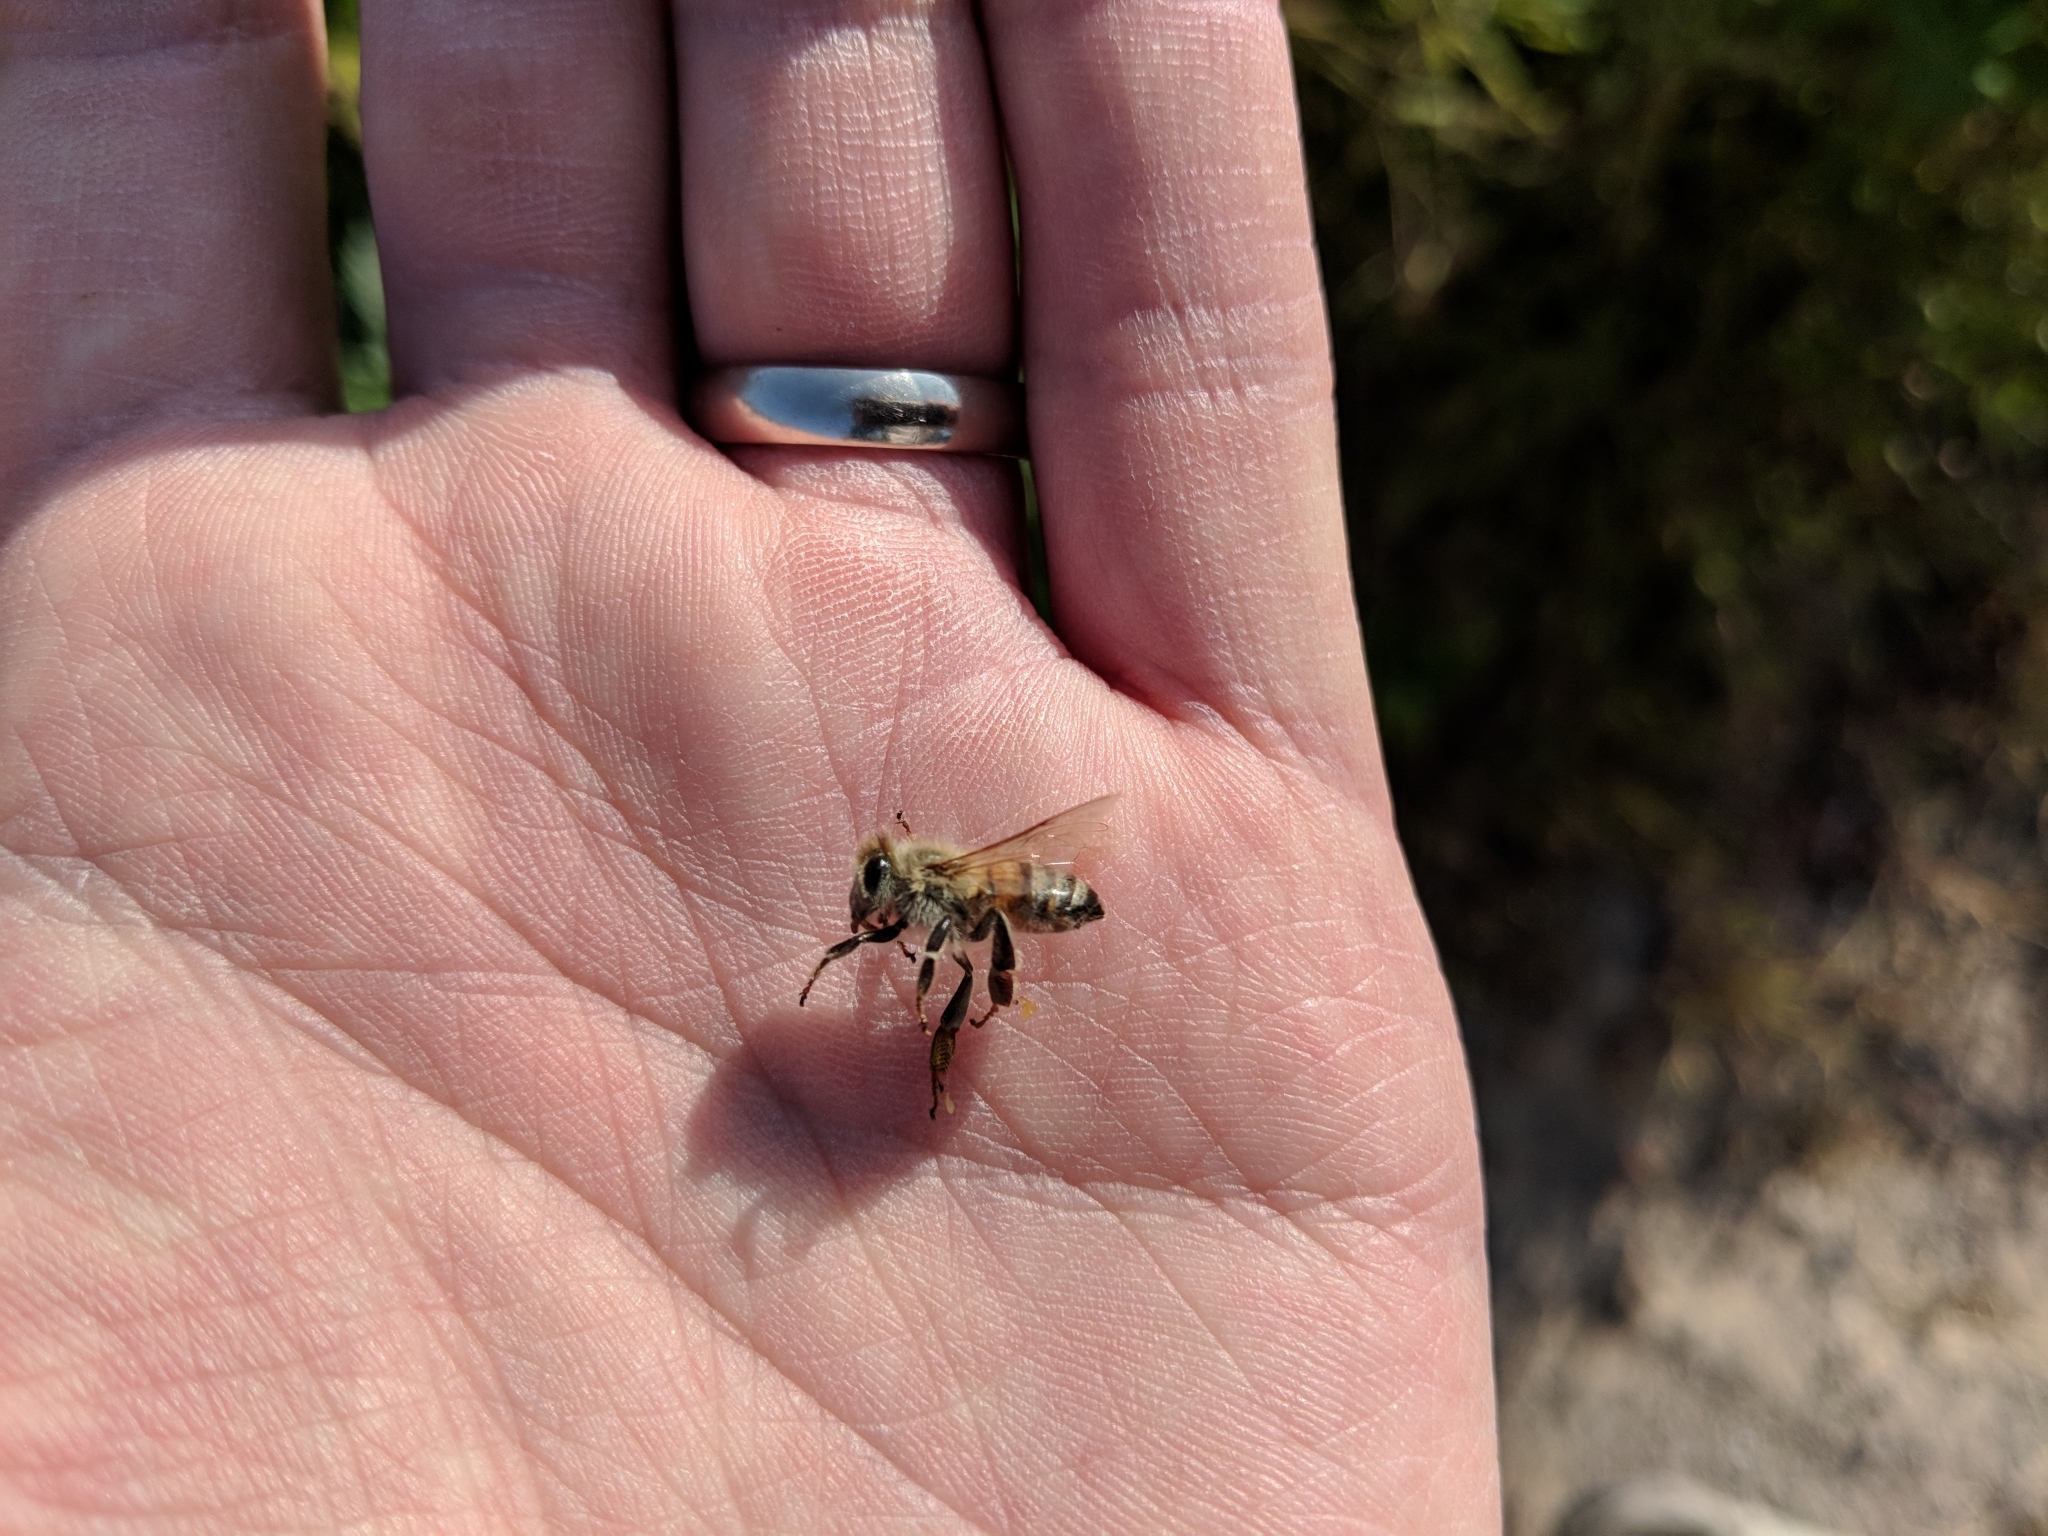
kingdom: Animalia
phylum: Arthropoda
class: Insecta
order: Hymenoptera
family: Apidae
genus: Apis
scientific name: Apis mellifera
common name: Honey bee
